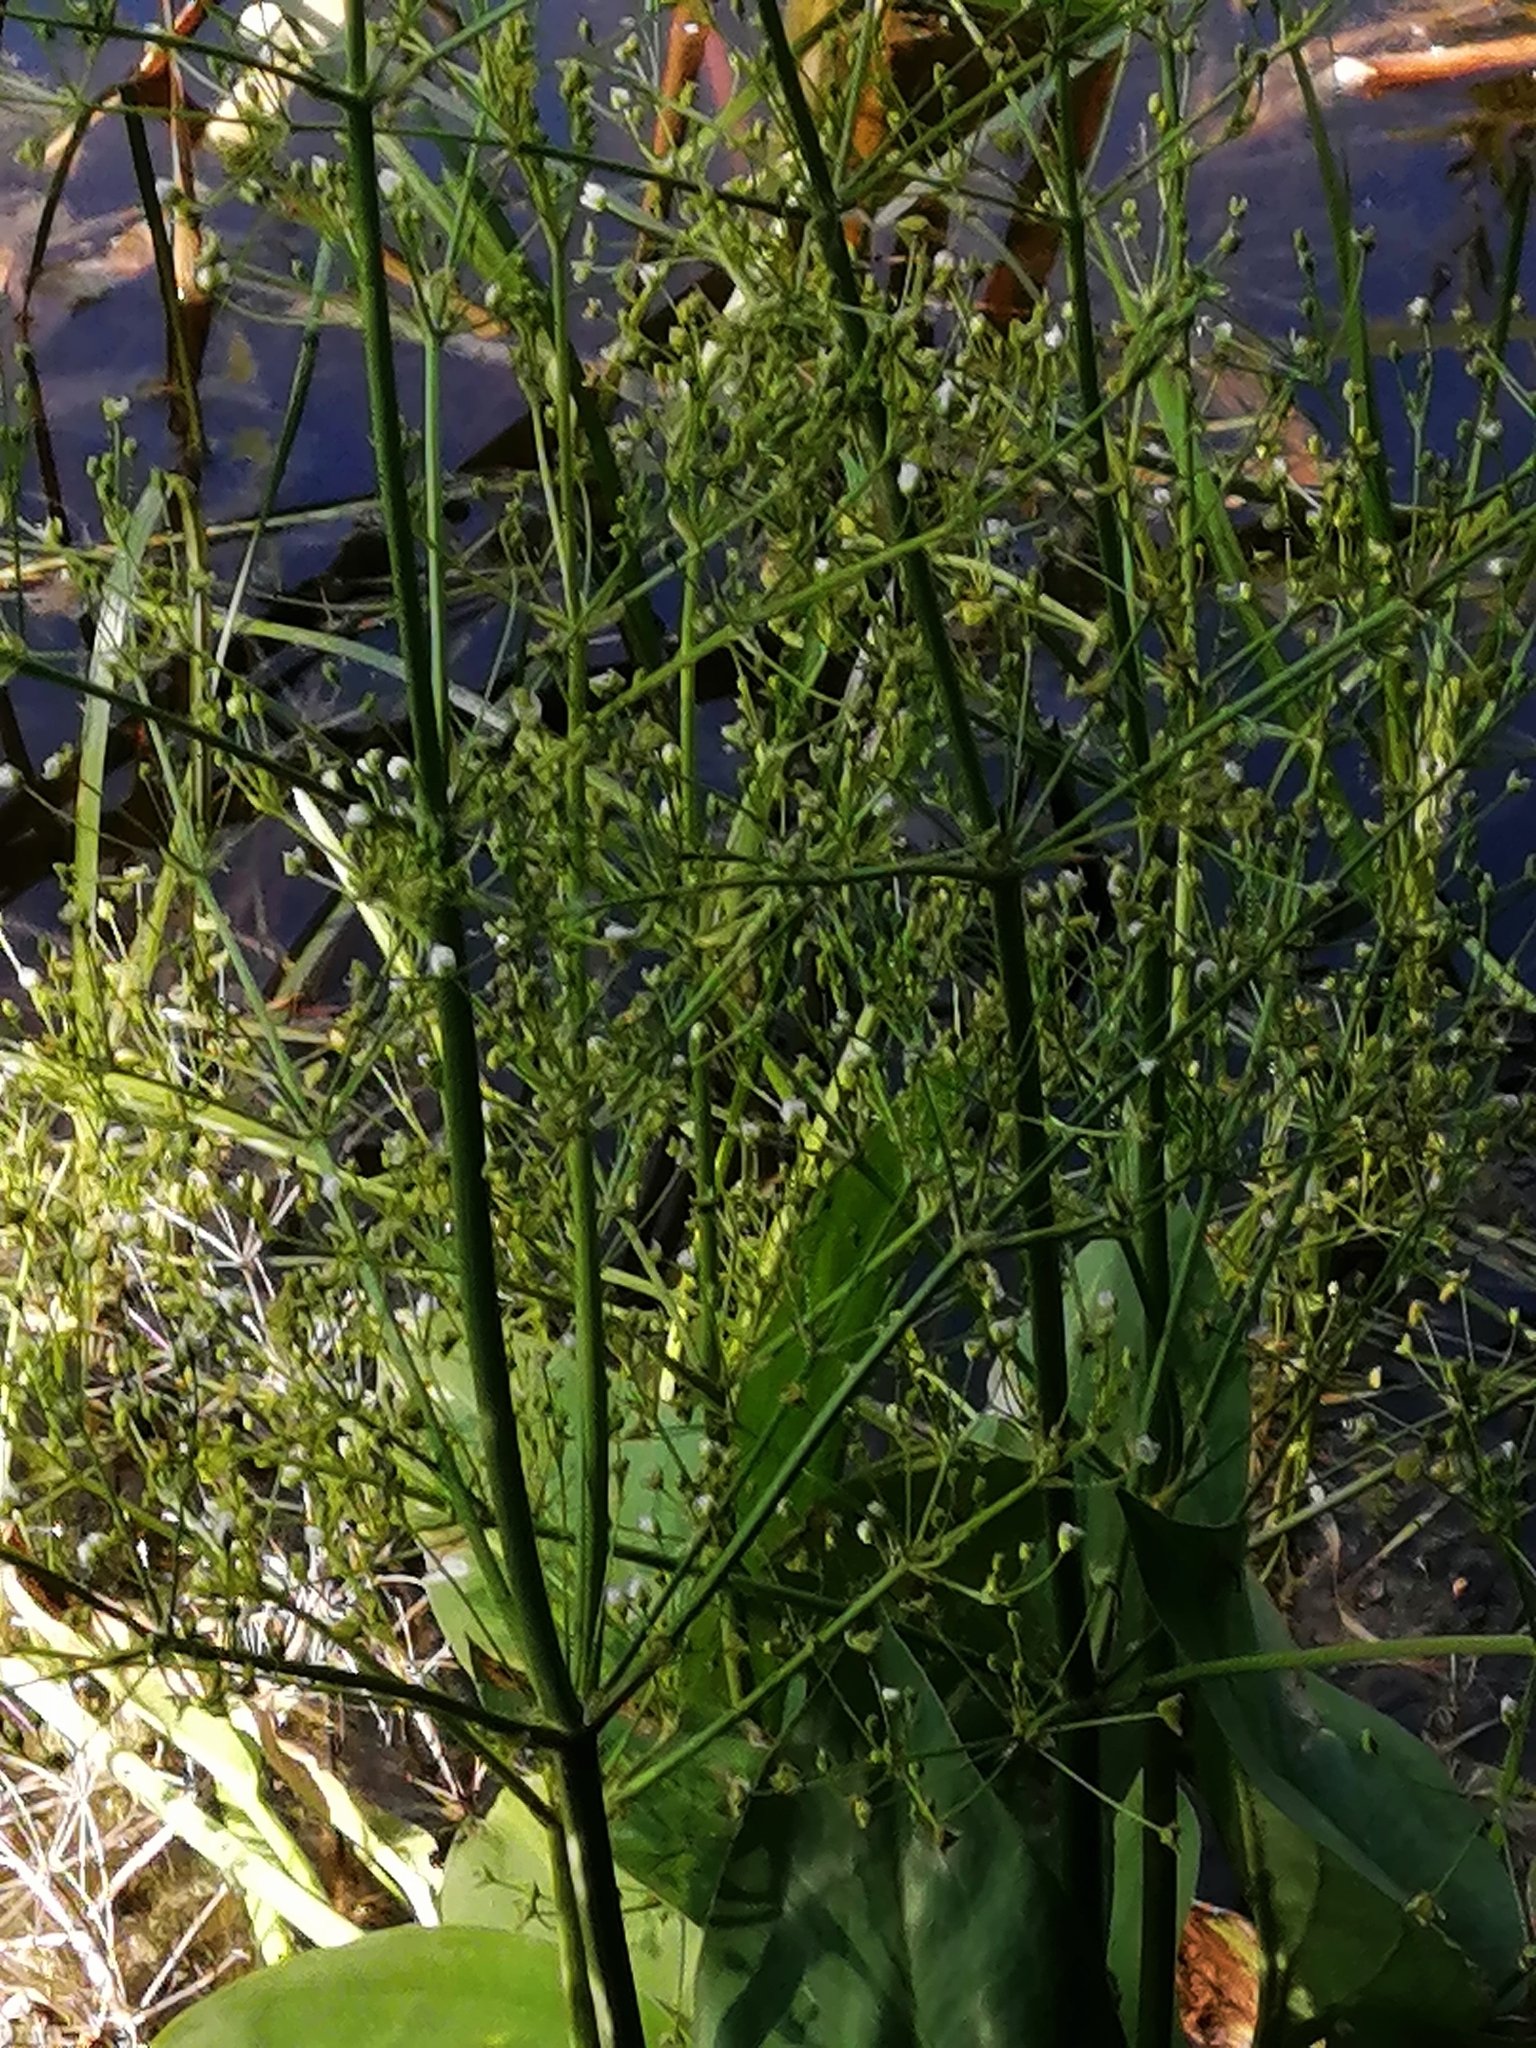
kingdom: Plantae
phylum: Tracheophyta
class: Liliopsida
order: Alismatales
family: Alismataceae
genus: Alisma
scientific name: Alisma plantago-aquatica
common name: Water-plantain
